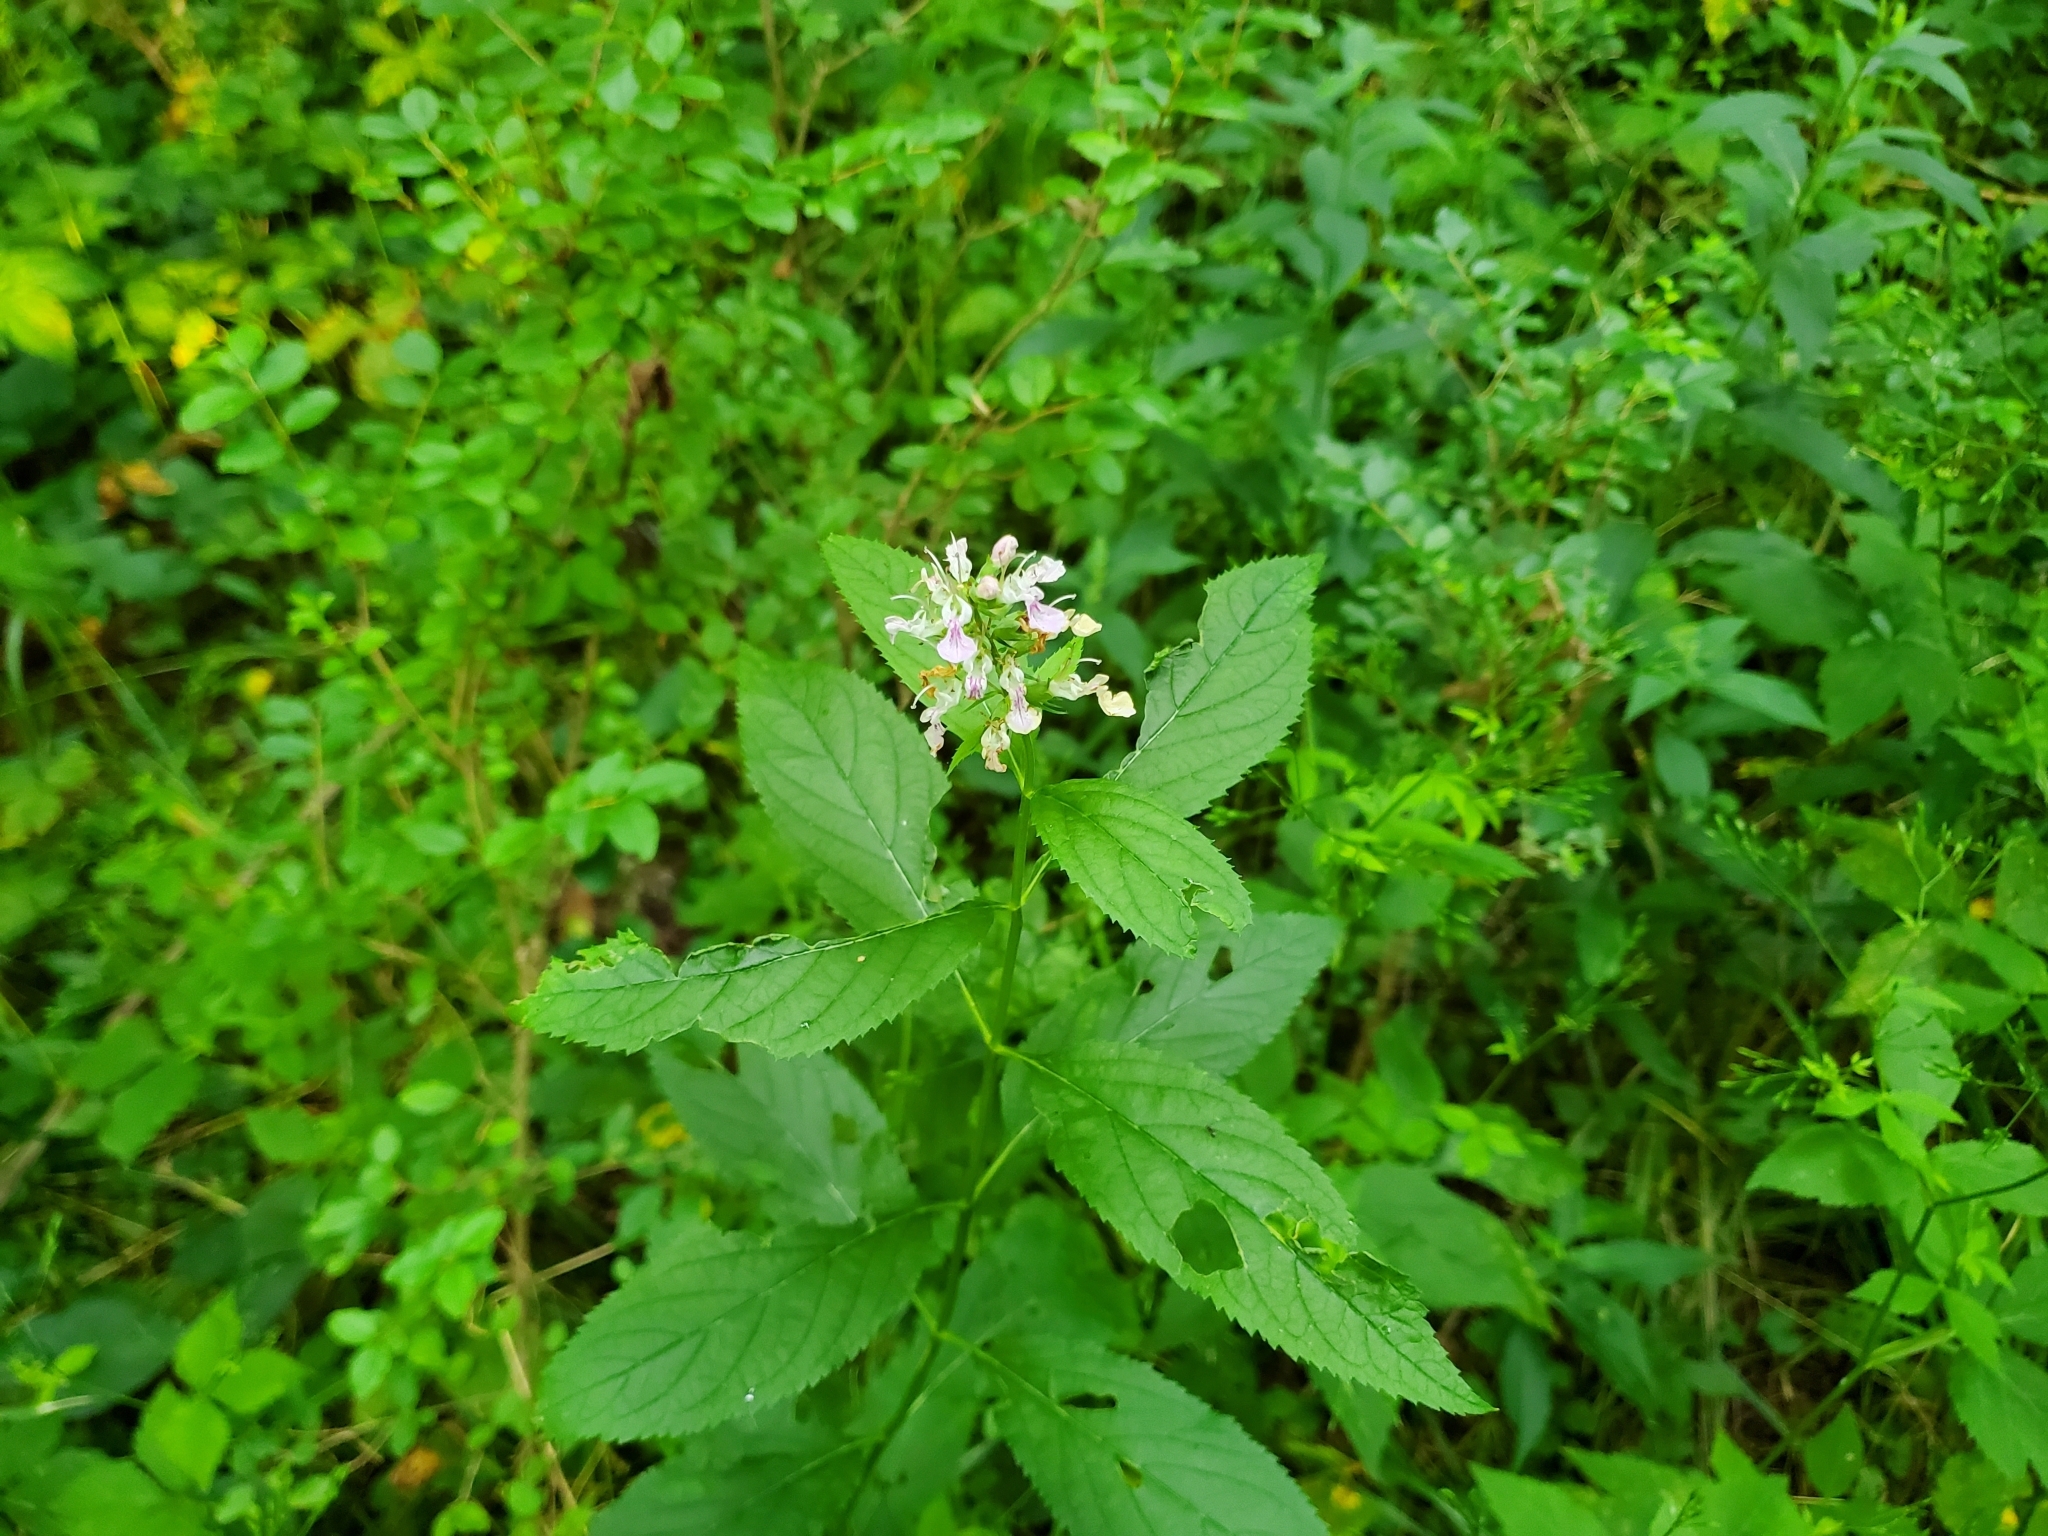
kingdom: Plantae
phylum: Tracheophyta
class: Magnoliopsida
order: Lamiales
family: Lamiaceae
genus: Teucrium
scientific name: Teucrium canadense
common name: American germander
